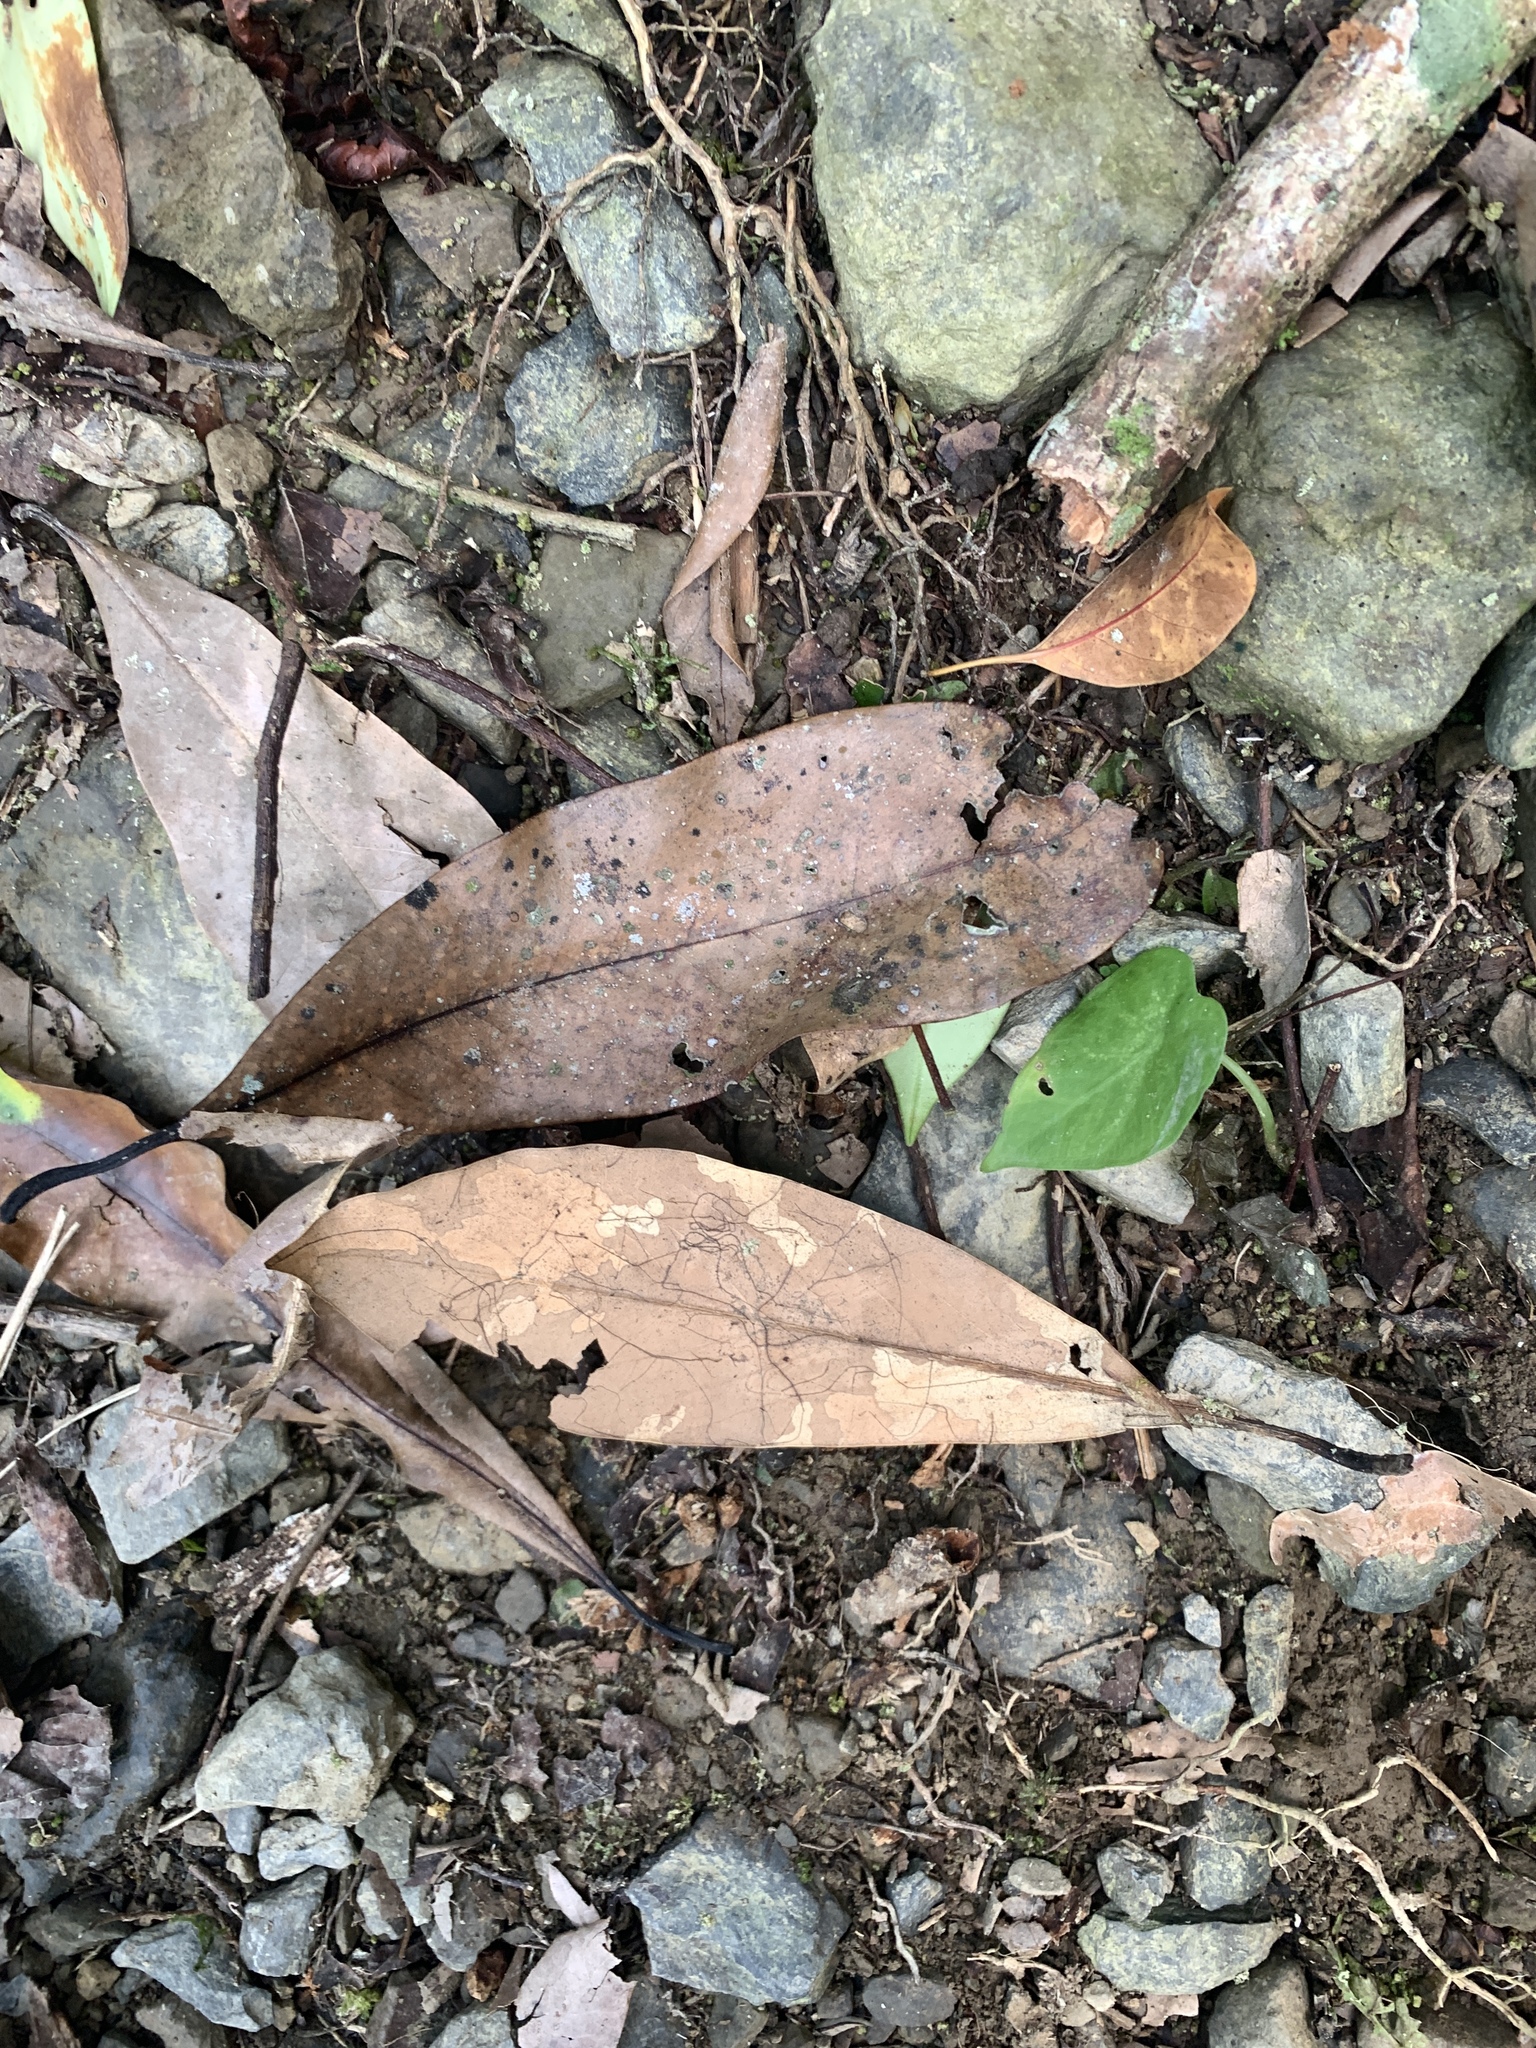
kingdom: Plantae
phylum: Tracheophyta
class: Magnoliopsida
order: Laurales
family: Lauraceae
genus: Machilus
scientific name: Machilus japonica
